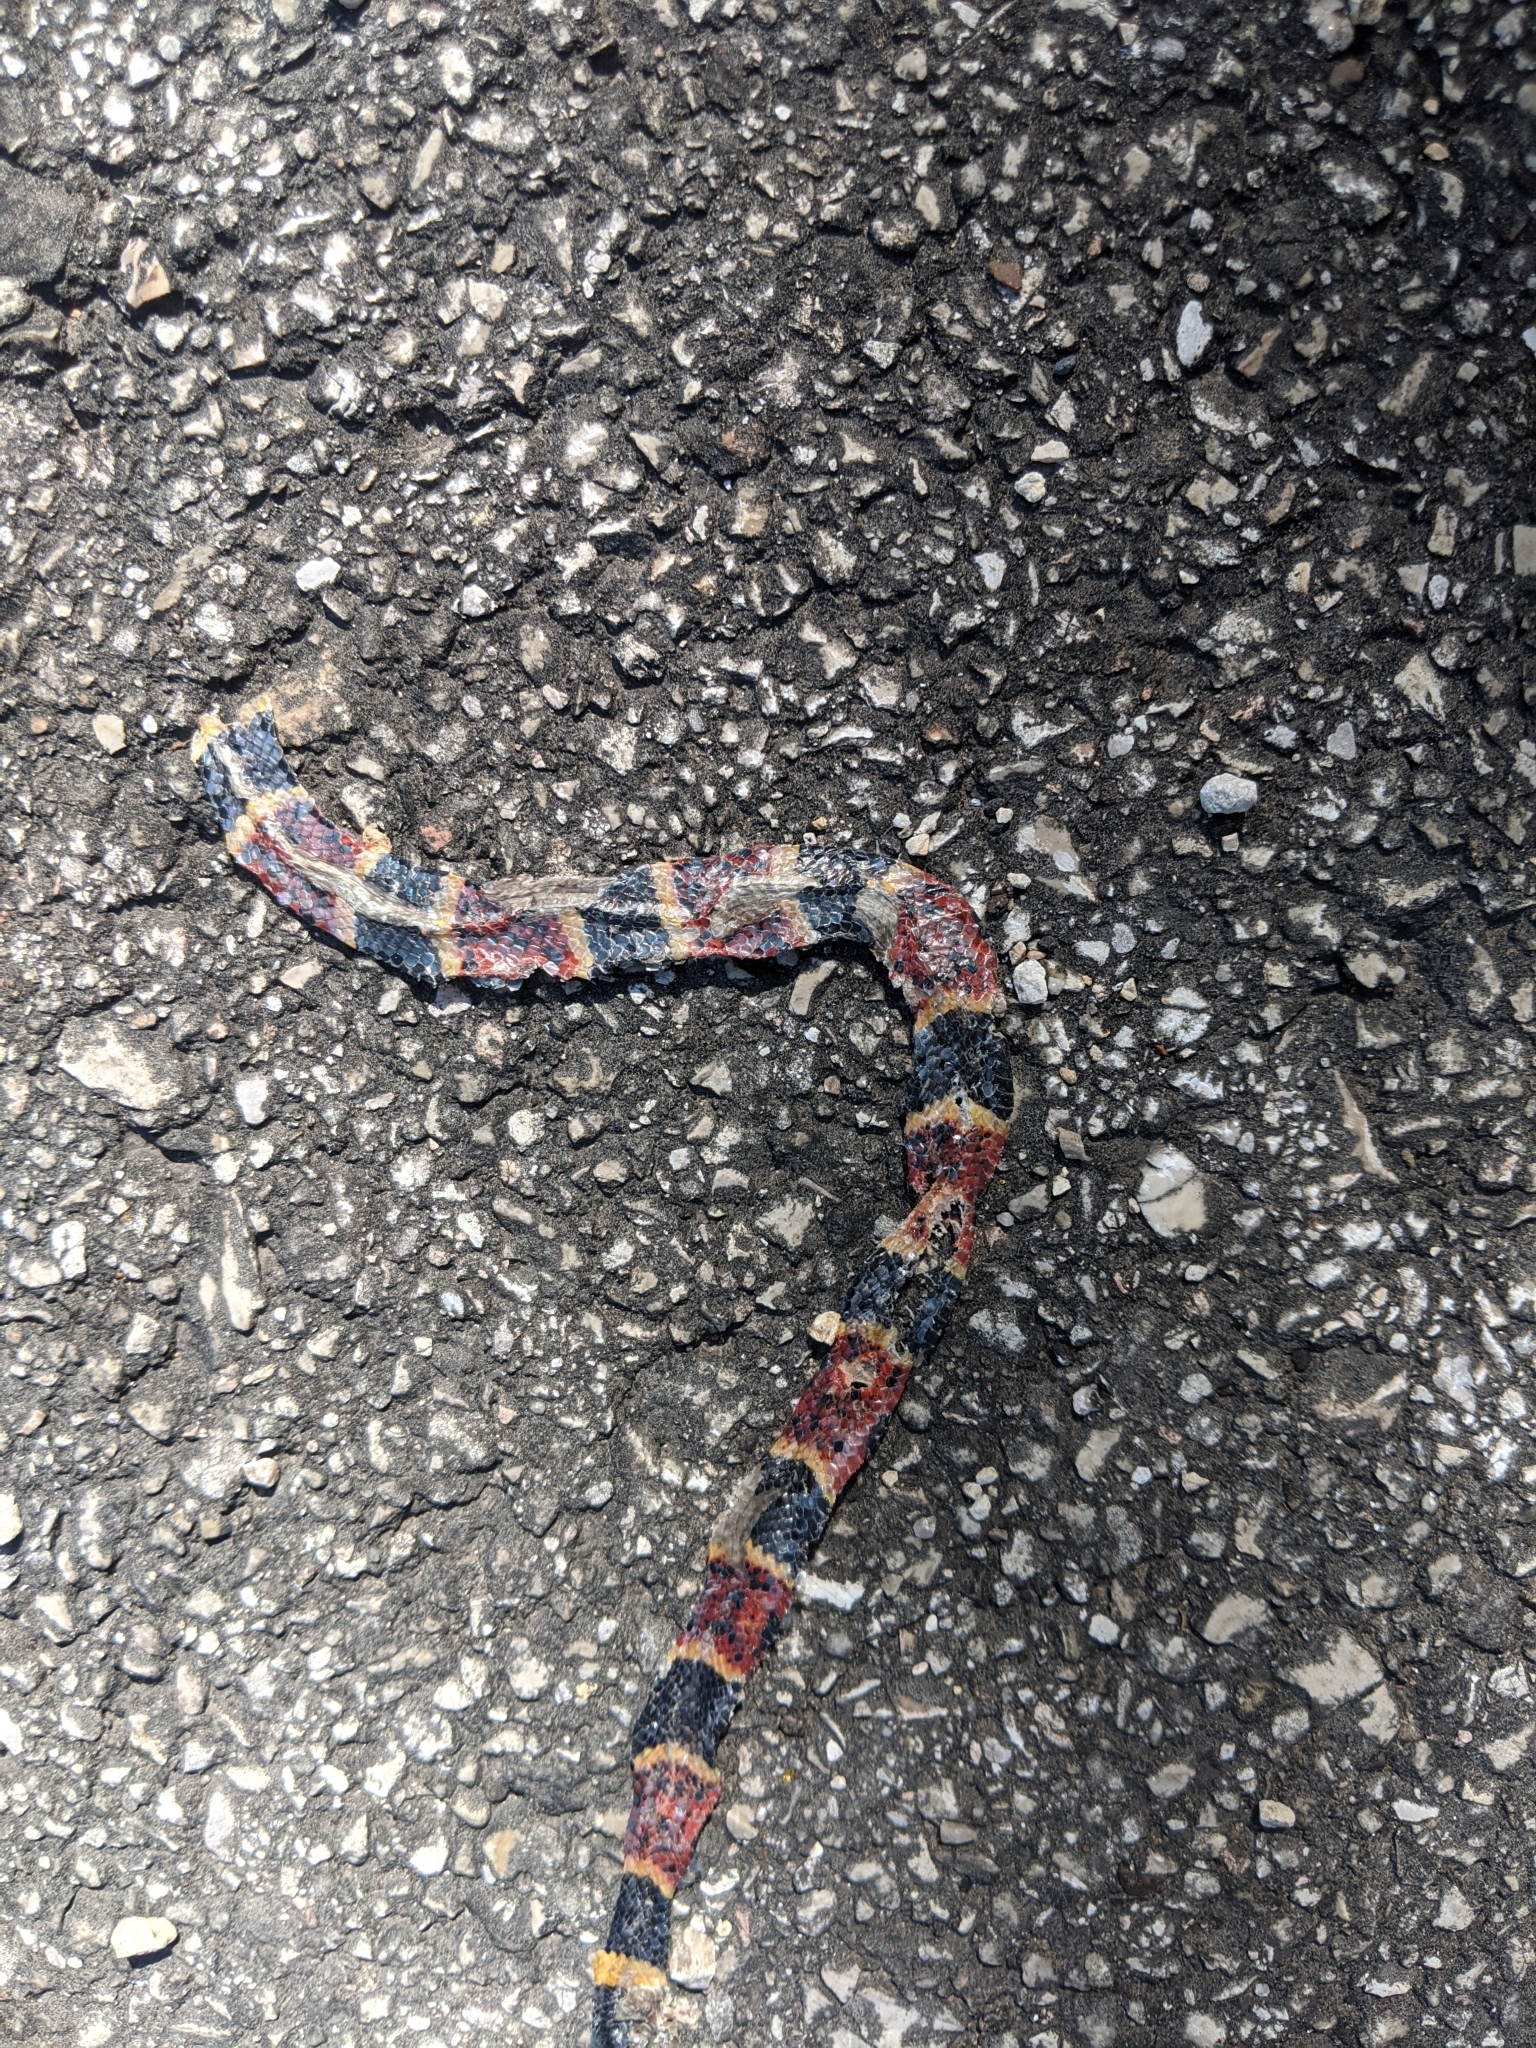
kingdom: Animalia
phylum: Chordata
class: Squamata
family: Elapidae
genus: Micrurus
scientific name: Micrurus tener
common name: Texas coral snake
